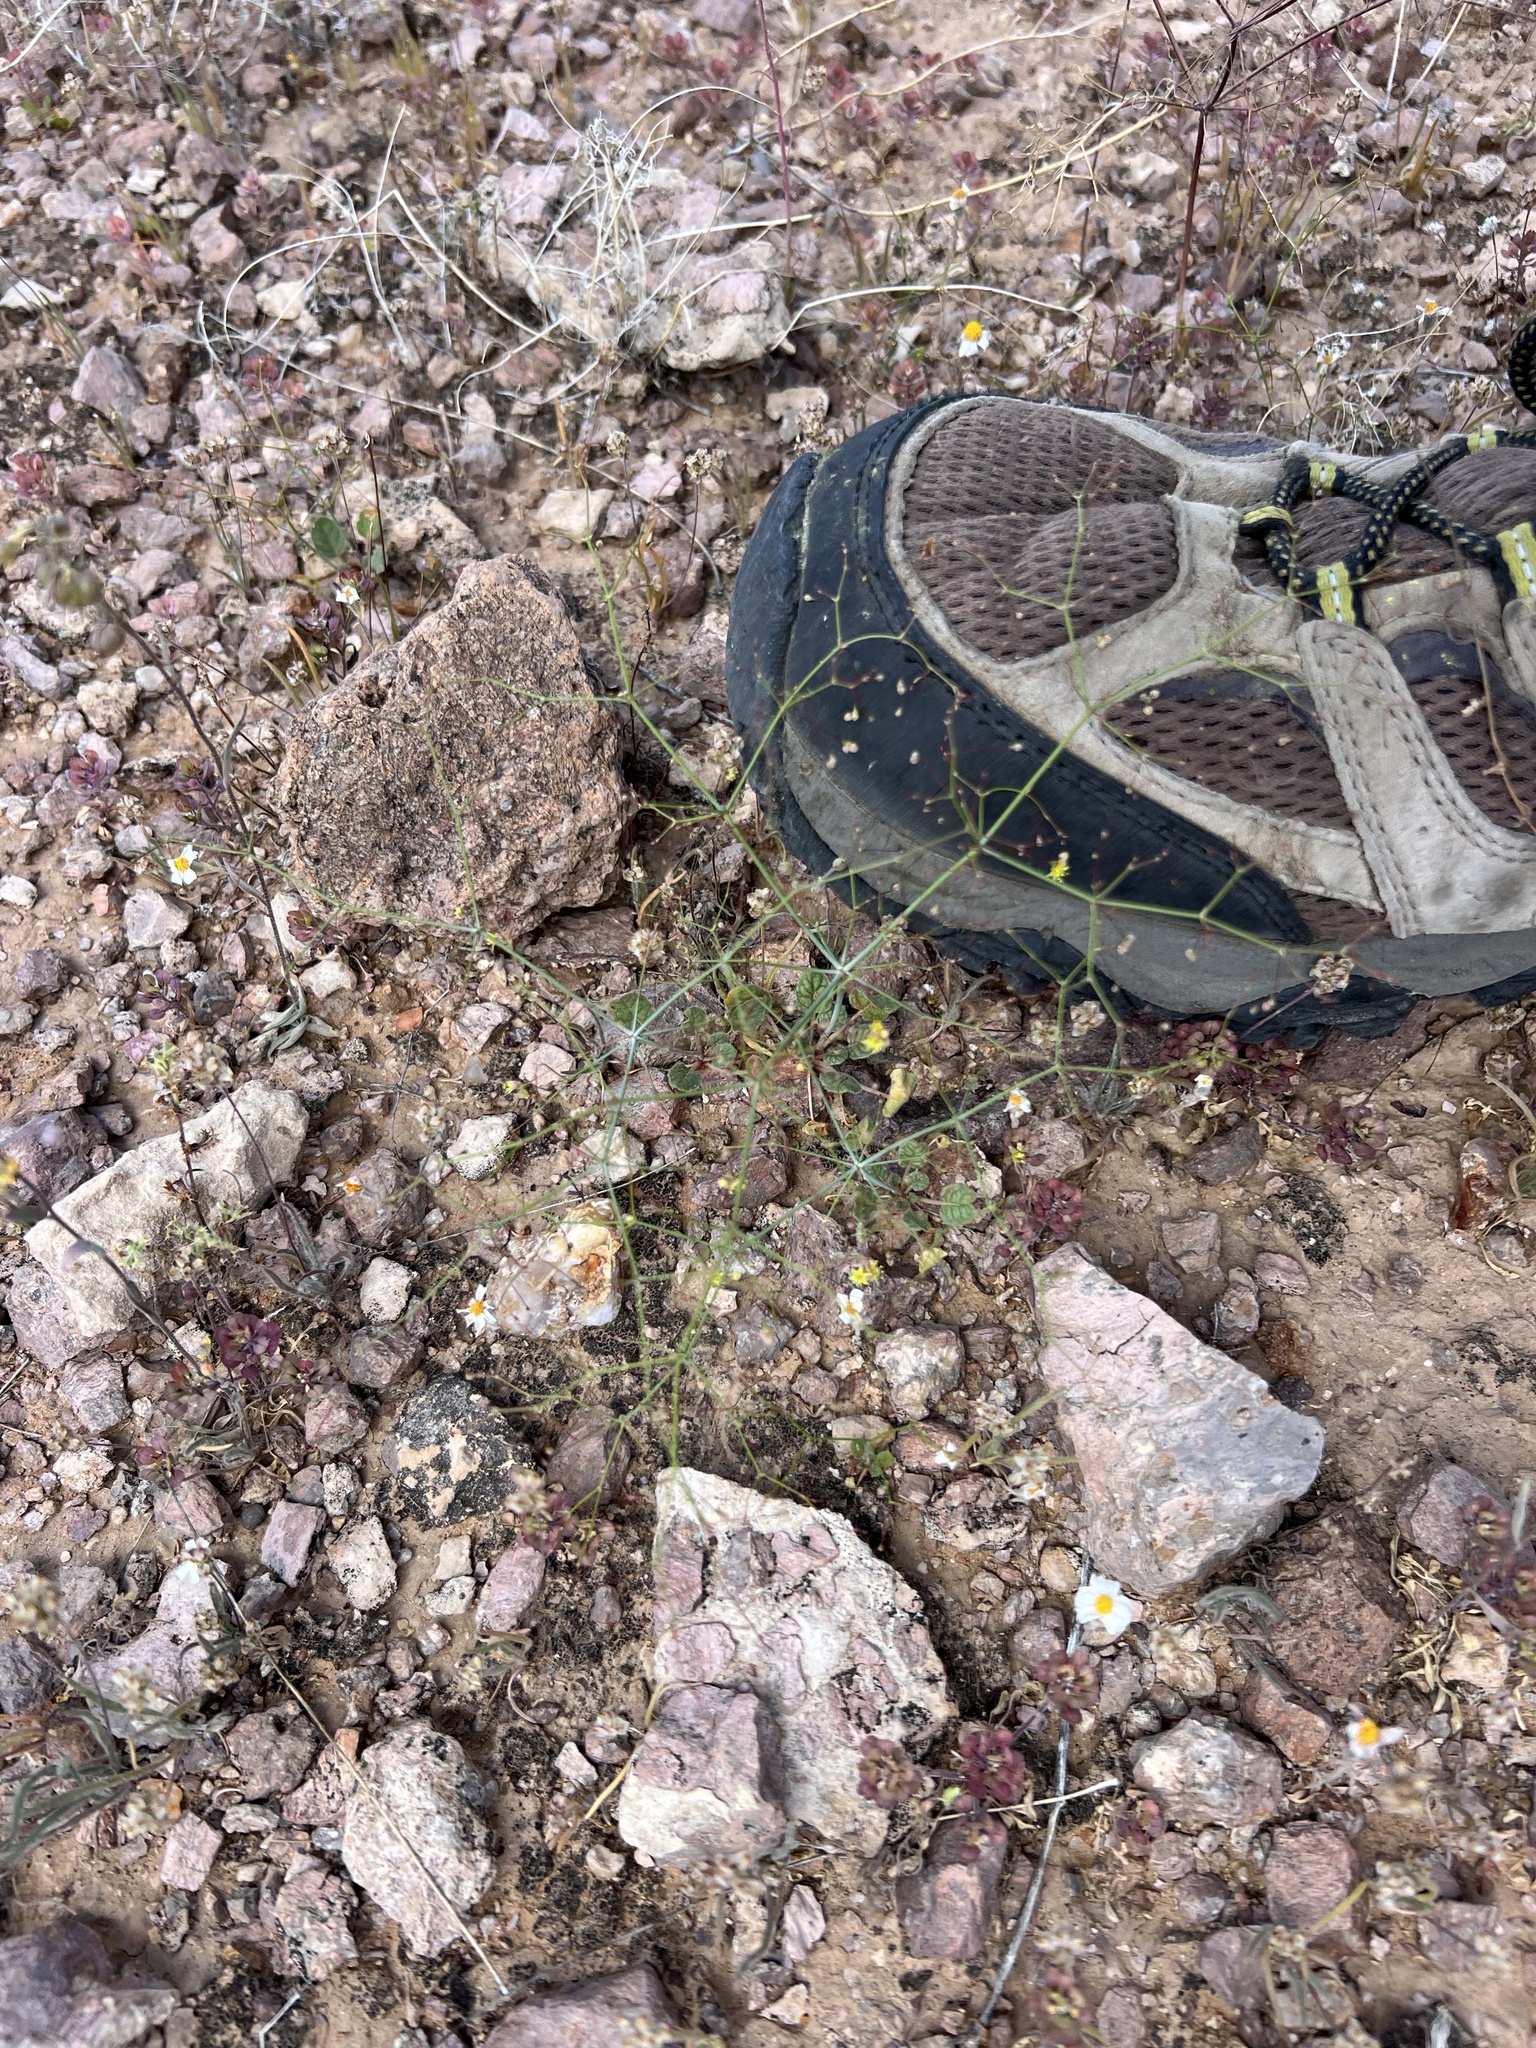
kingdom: Plantae
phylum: Tracheophyta
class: Magnoliopsida
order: Caryophyllales
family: Polygonaceae
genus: Eriogonum
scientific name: Eriogonum trichopes
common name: Little desert trumpet
